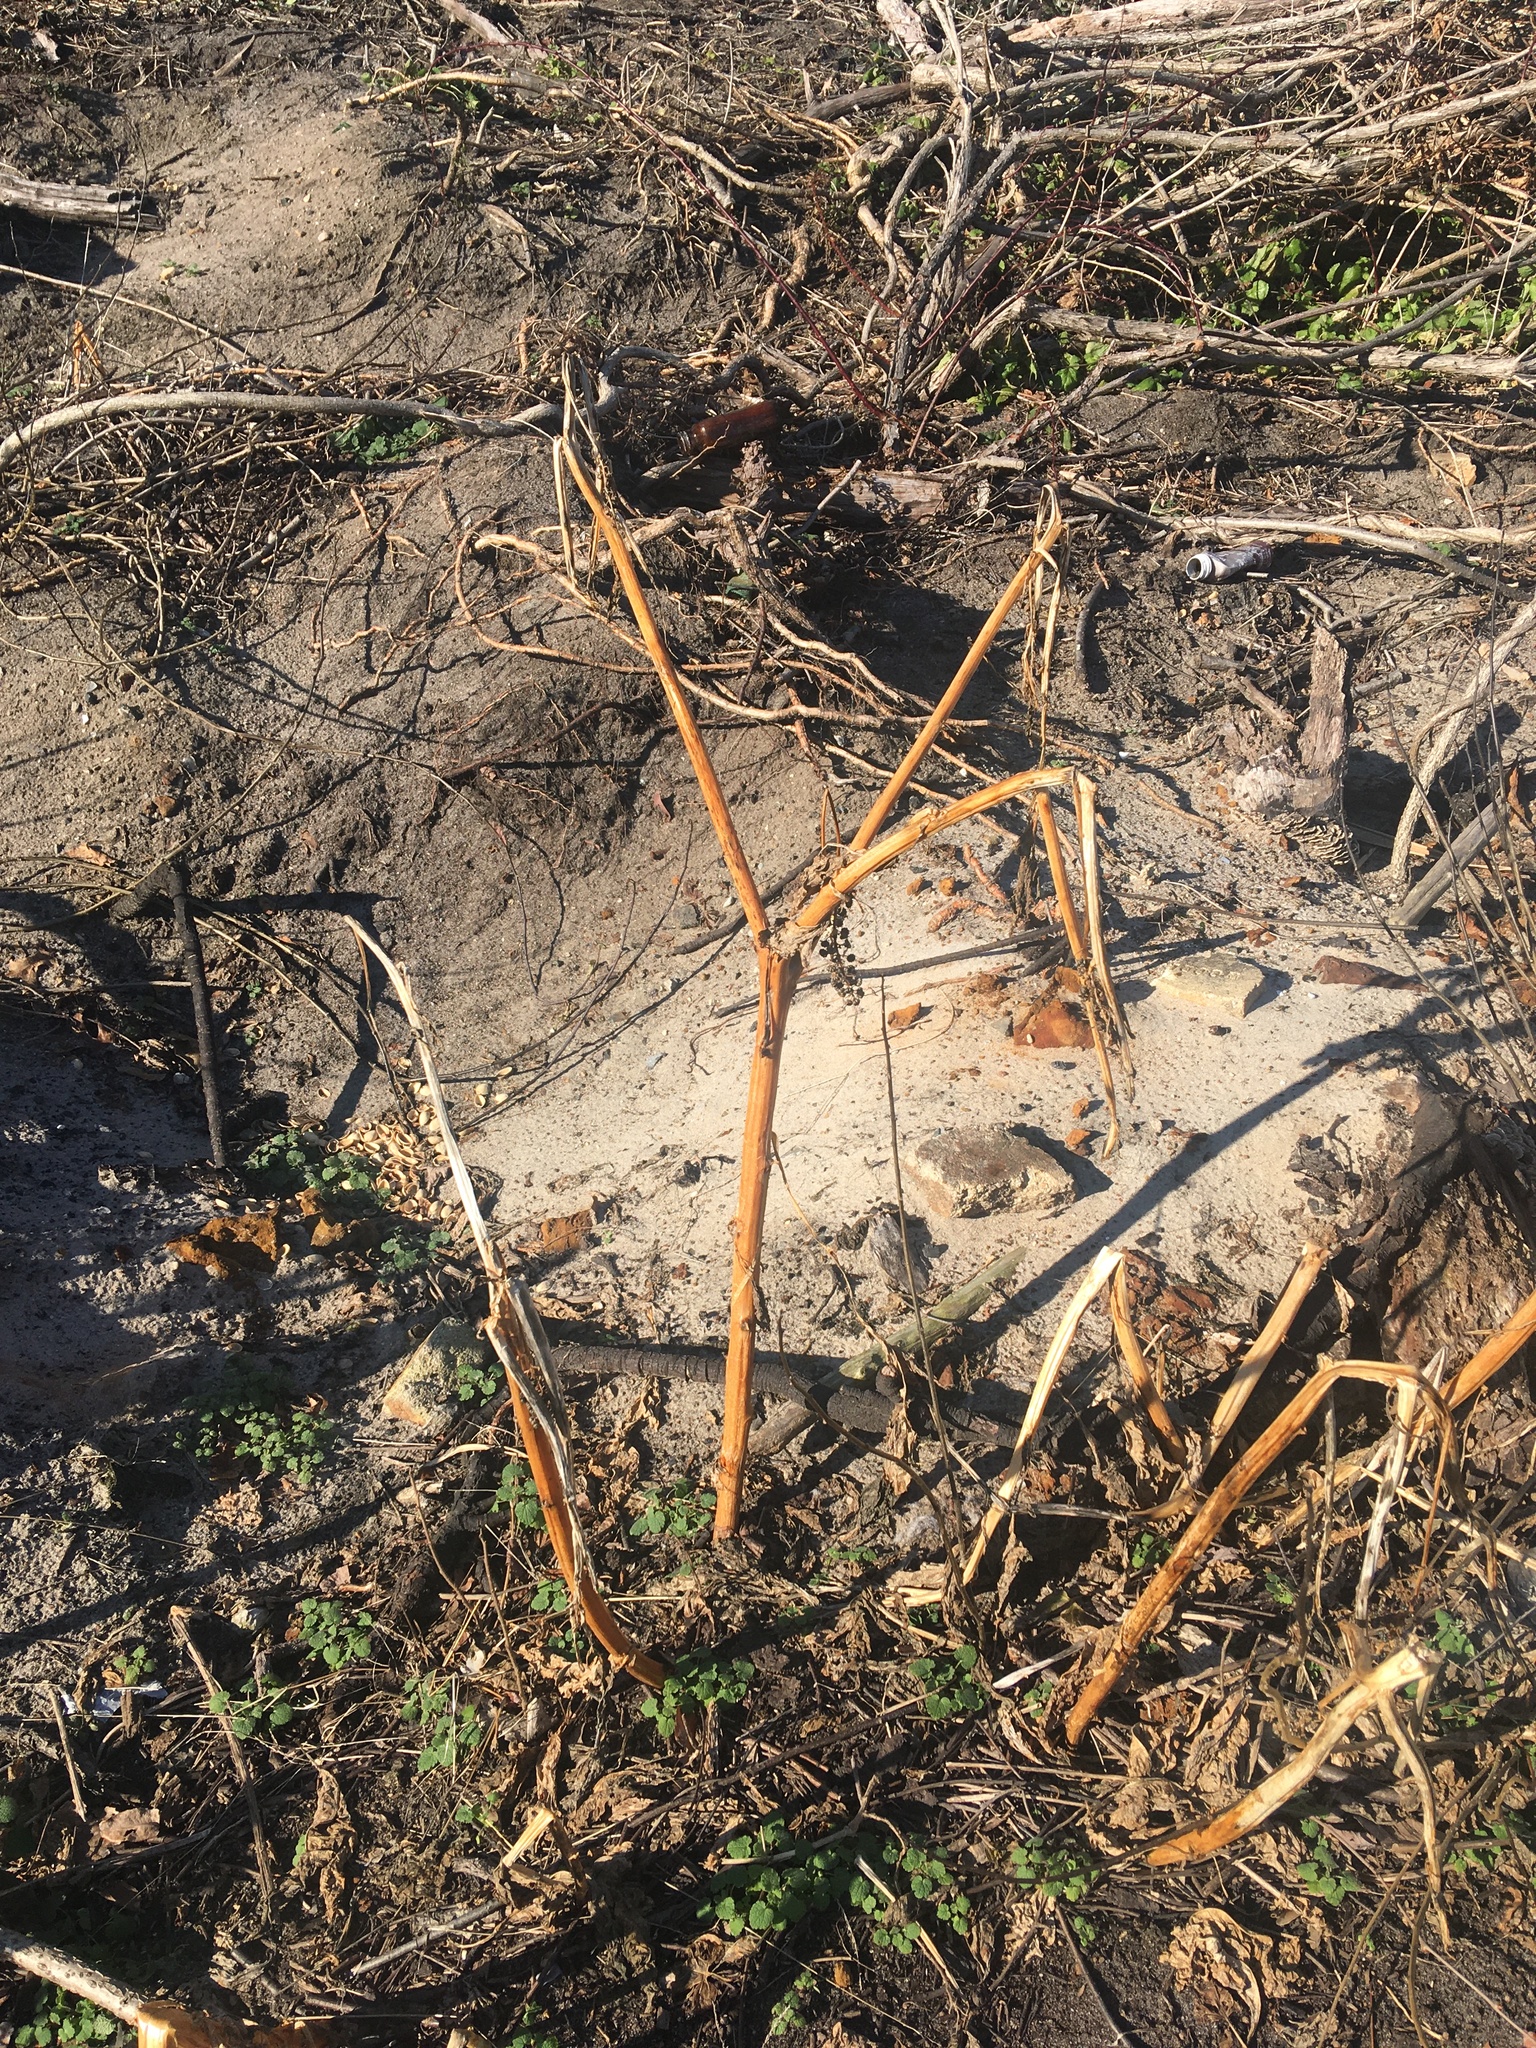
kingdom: Plantae
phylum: Tracheophyta
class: Magnoliopsida
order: Caryophyllales
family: Phytolaccaceae
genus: Phytolacca
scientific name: Phytolacca americana
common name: American pokeweed
